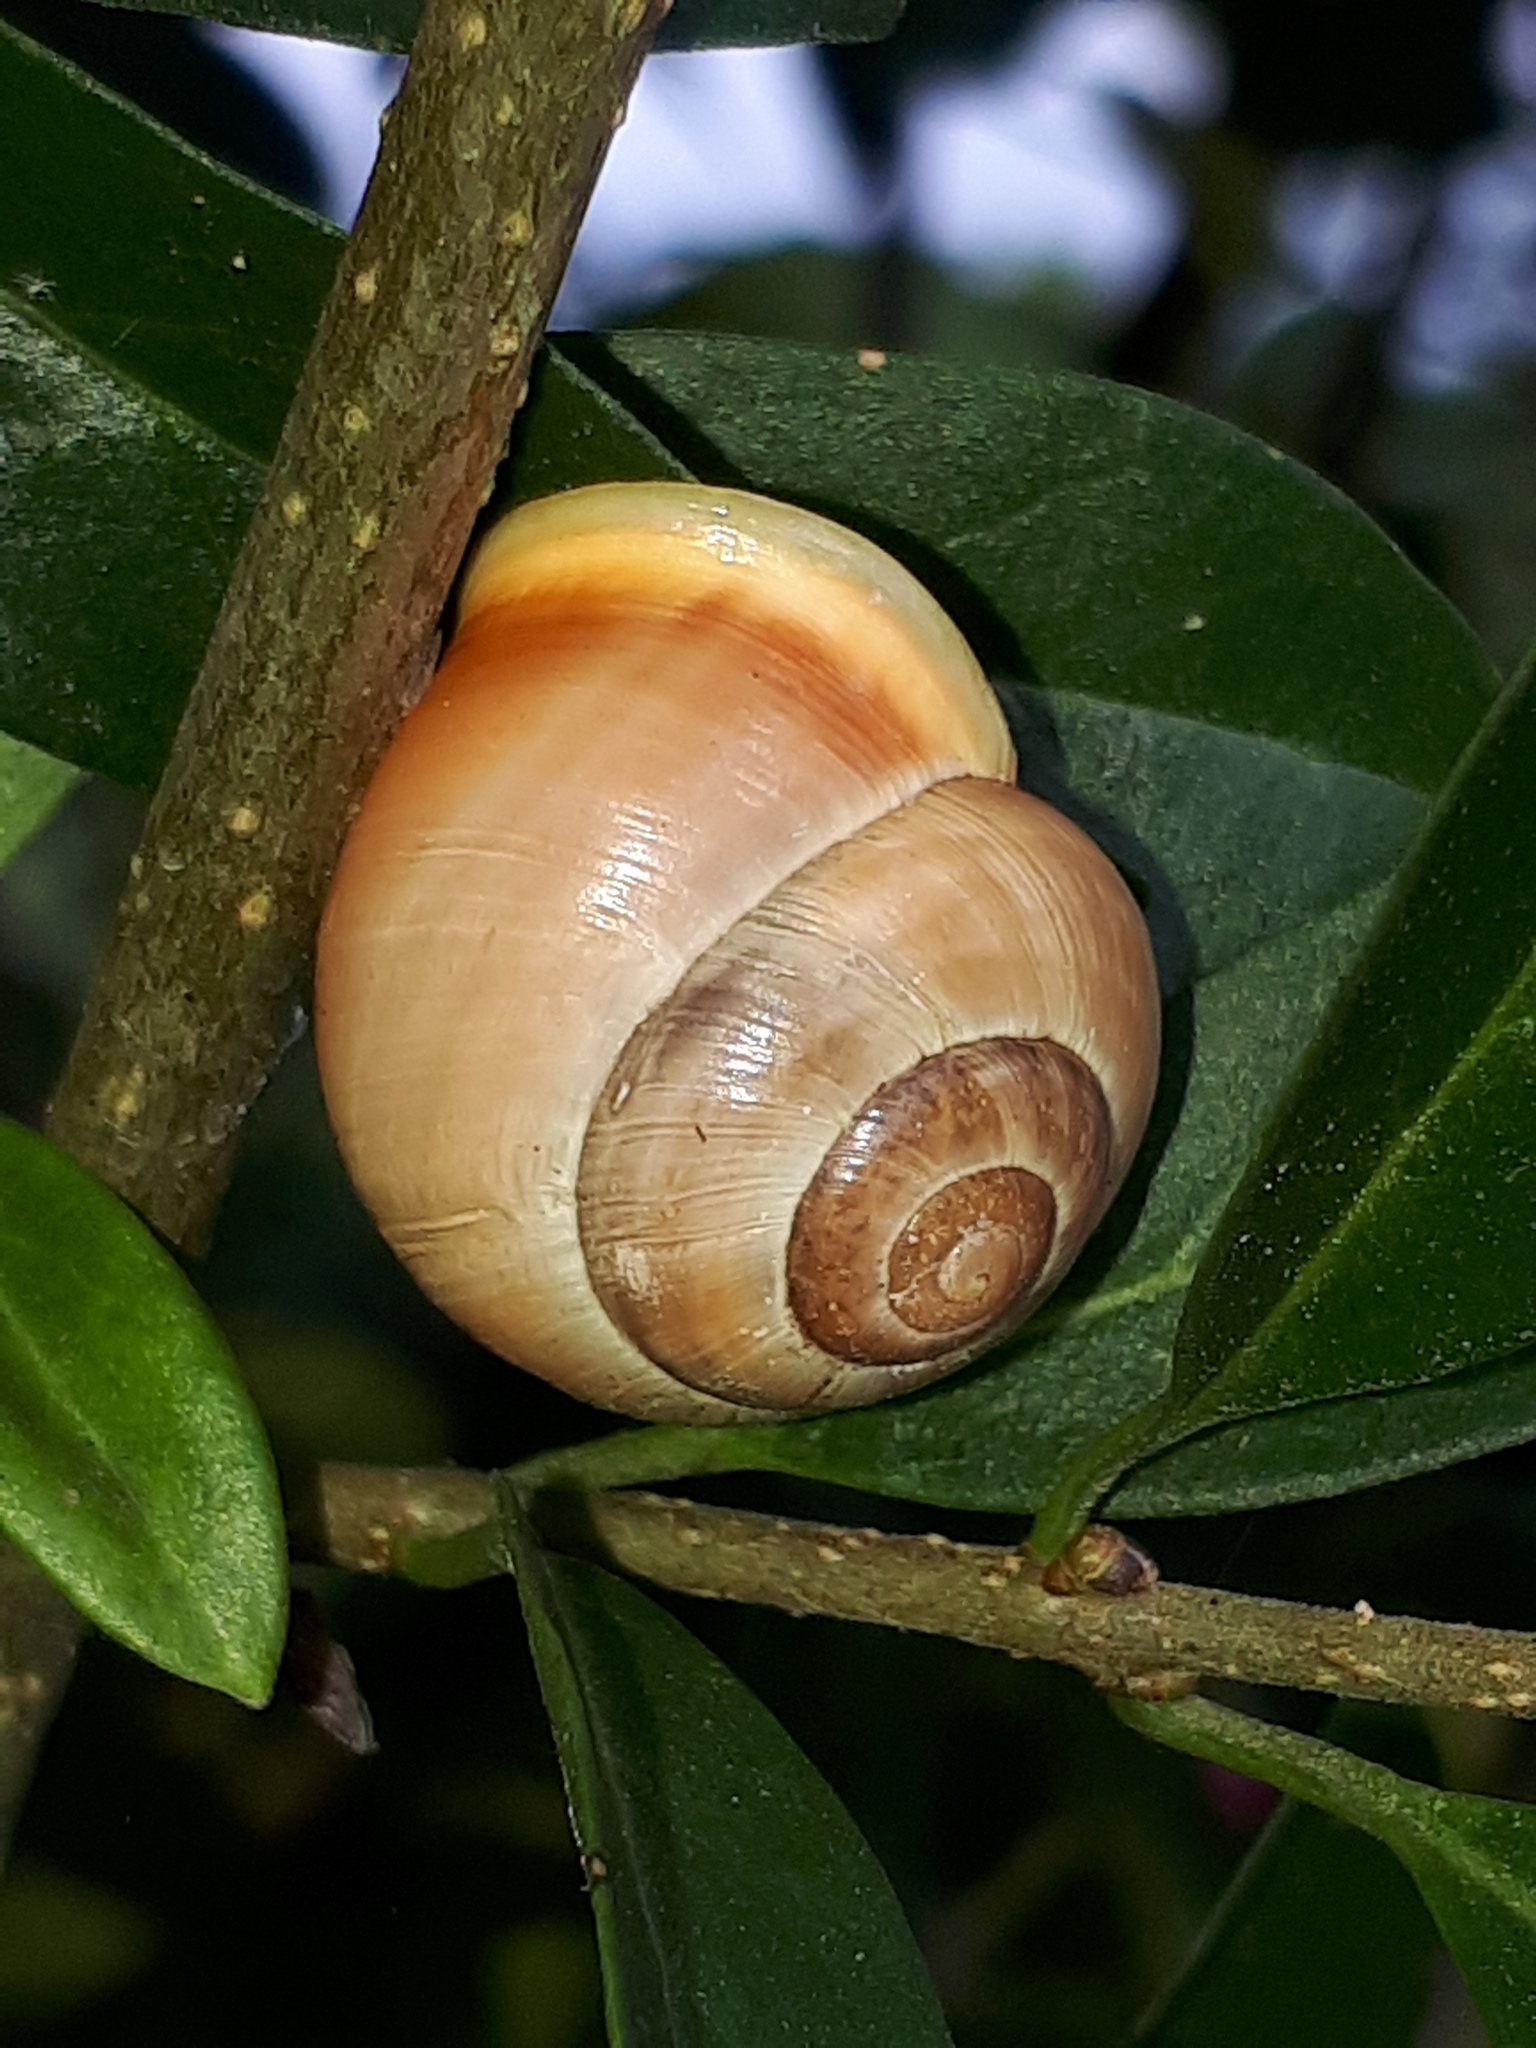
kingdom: Animalia
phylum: Mollusca
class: Gastropoda
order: Stylommatophora
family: Helicidae
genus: Cepaea
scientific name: Cepaea hortensis
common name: White-lip gardensnail
